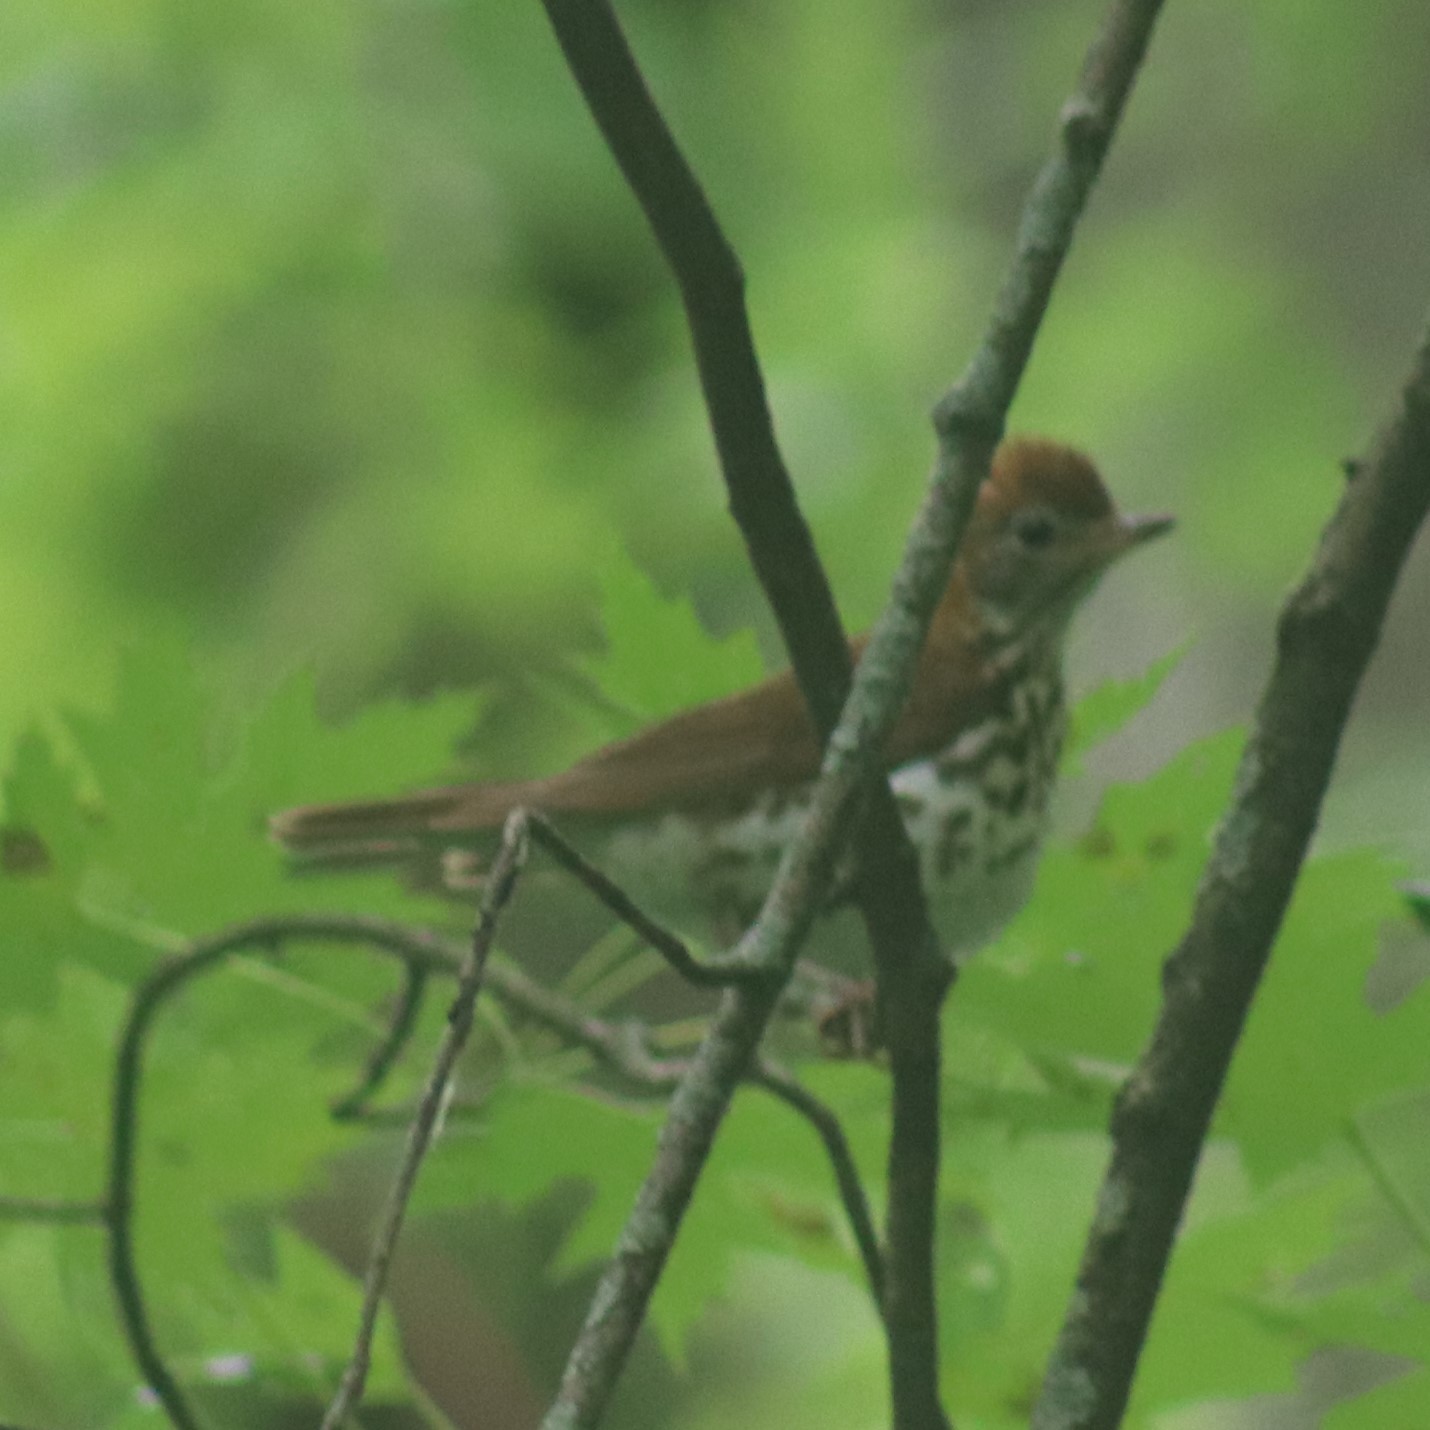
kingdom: Animalia
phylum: Chordata
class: Aves
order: Passeriformes
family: Turdidae
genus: Hylocichla
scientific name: Hylocichla mustelina
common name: Wood thrush
